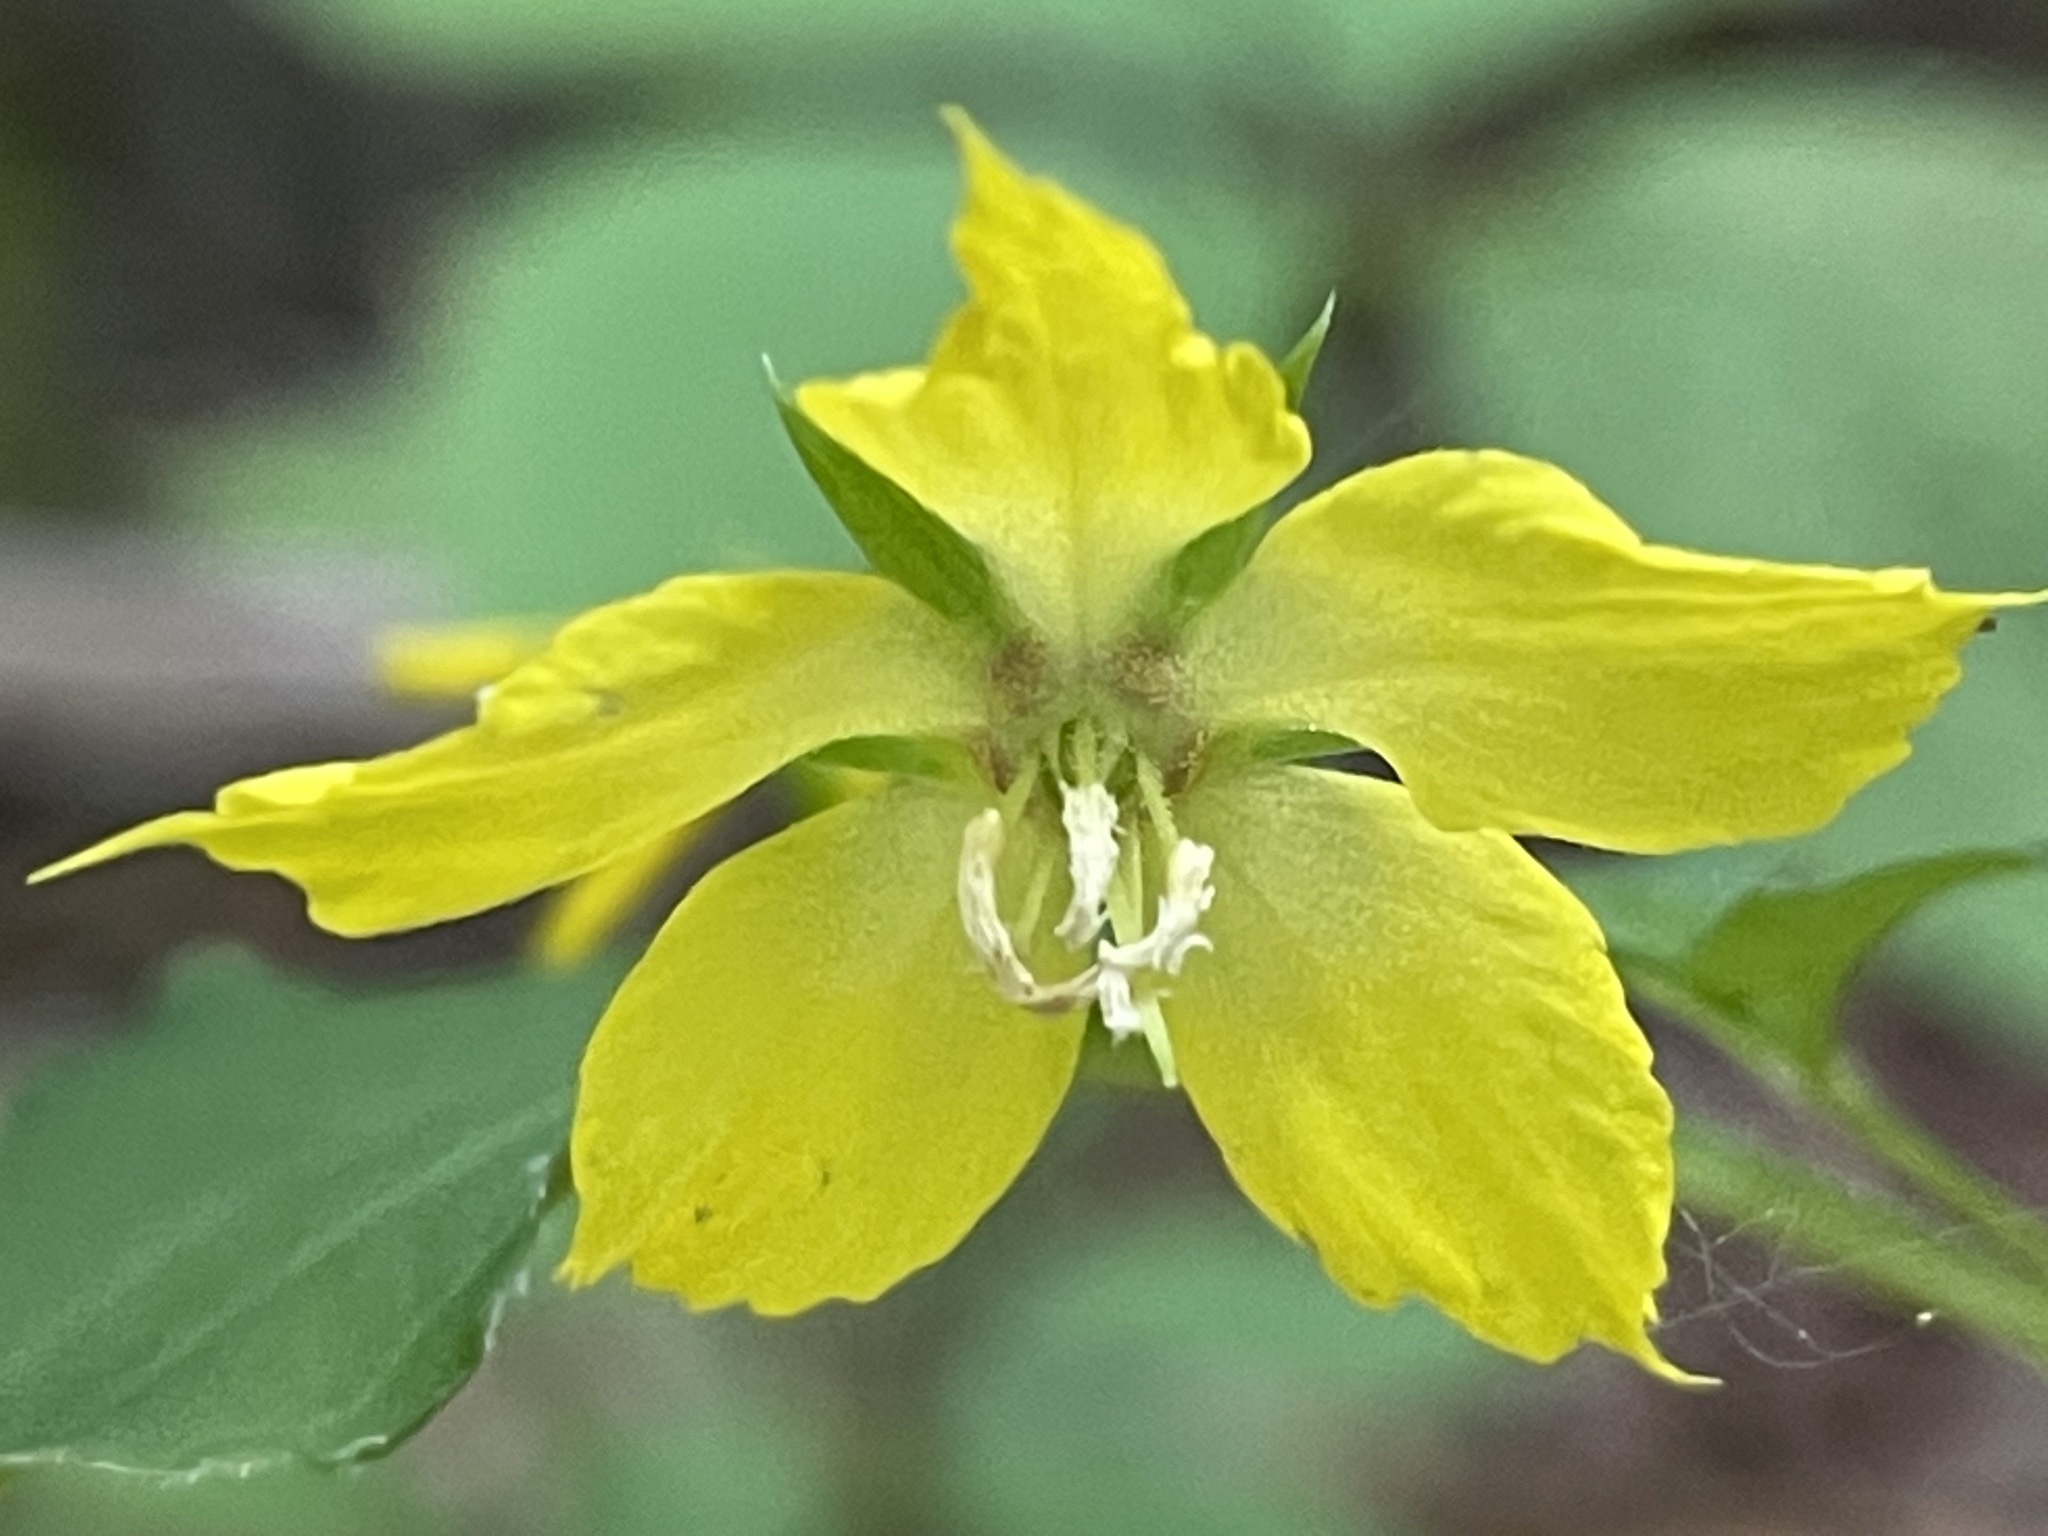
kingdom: Plantae
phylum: Tracheophyta
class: Magnoliopsida
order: Ericales
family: Primulaceae
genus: Lysimachia
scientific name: Lysimachia ciliata
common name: Fringed loosestrife
